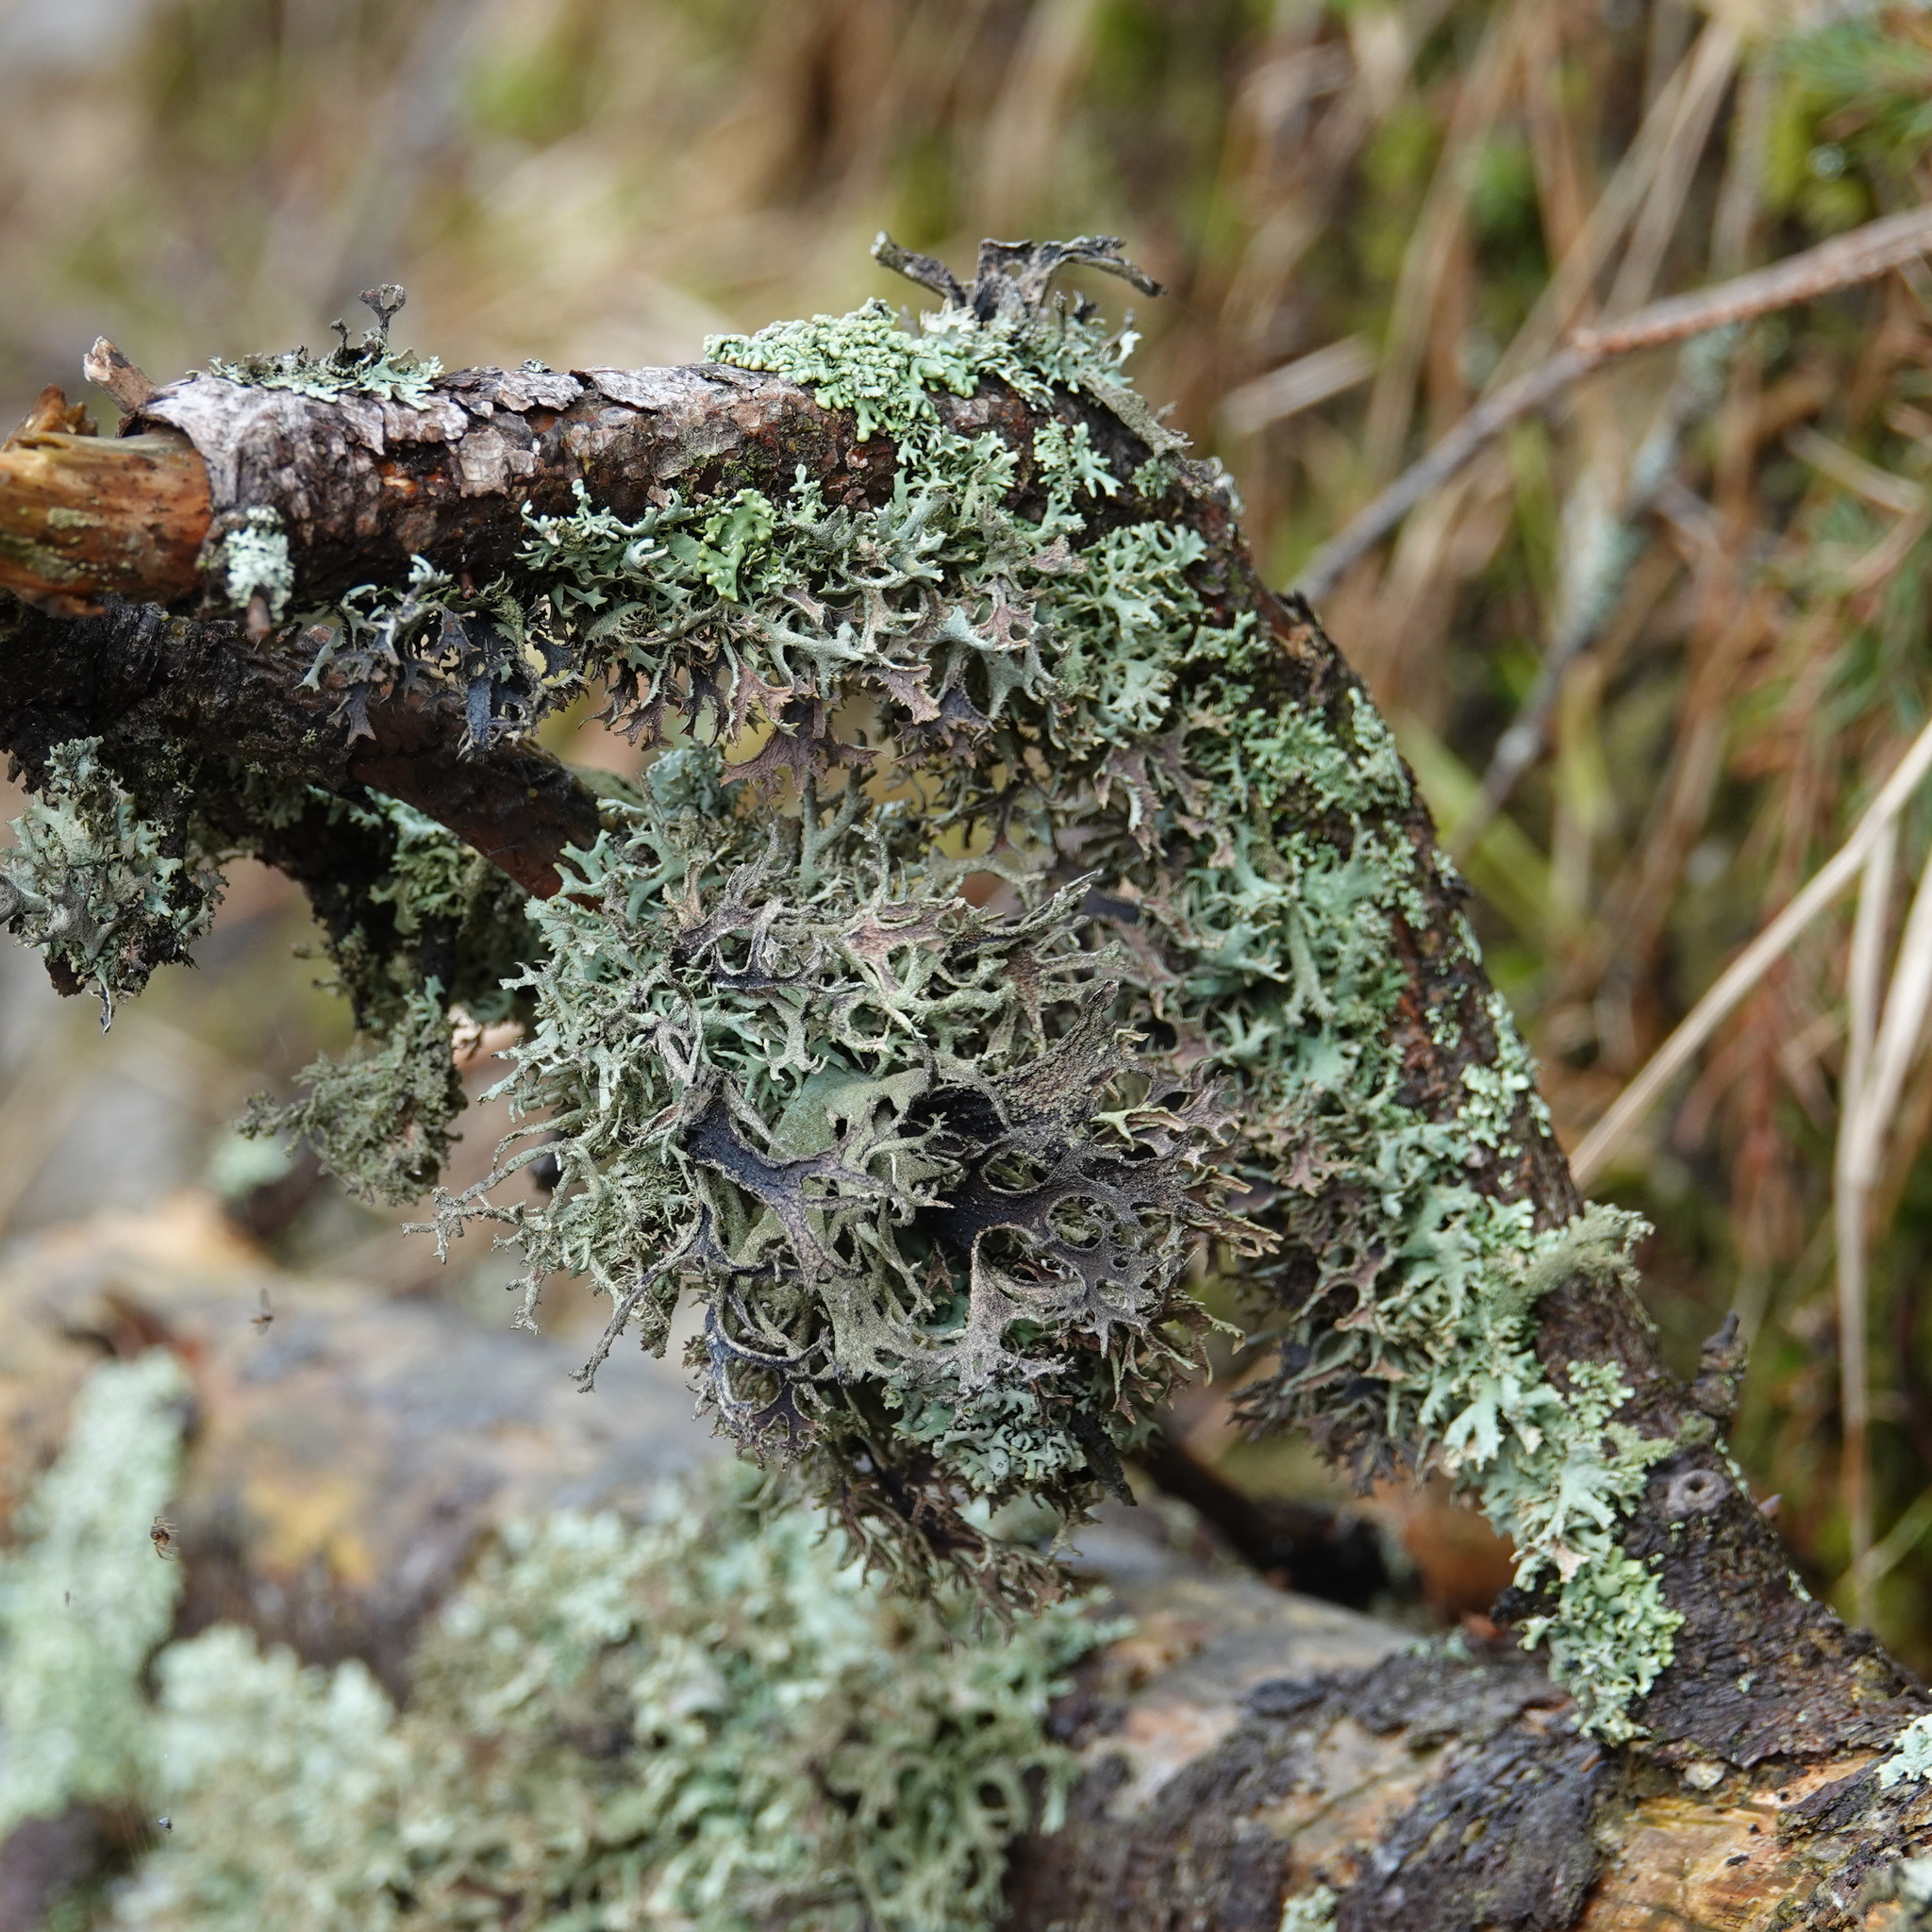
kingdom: Fungi
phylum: Ascomycota
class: Lecanoromycetes
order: Lecanorales
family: Parmeliaceae
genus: Pseudevernia
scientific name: Pseudevernia furfuracea
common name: Tree moss
